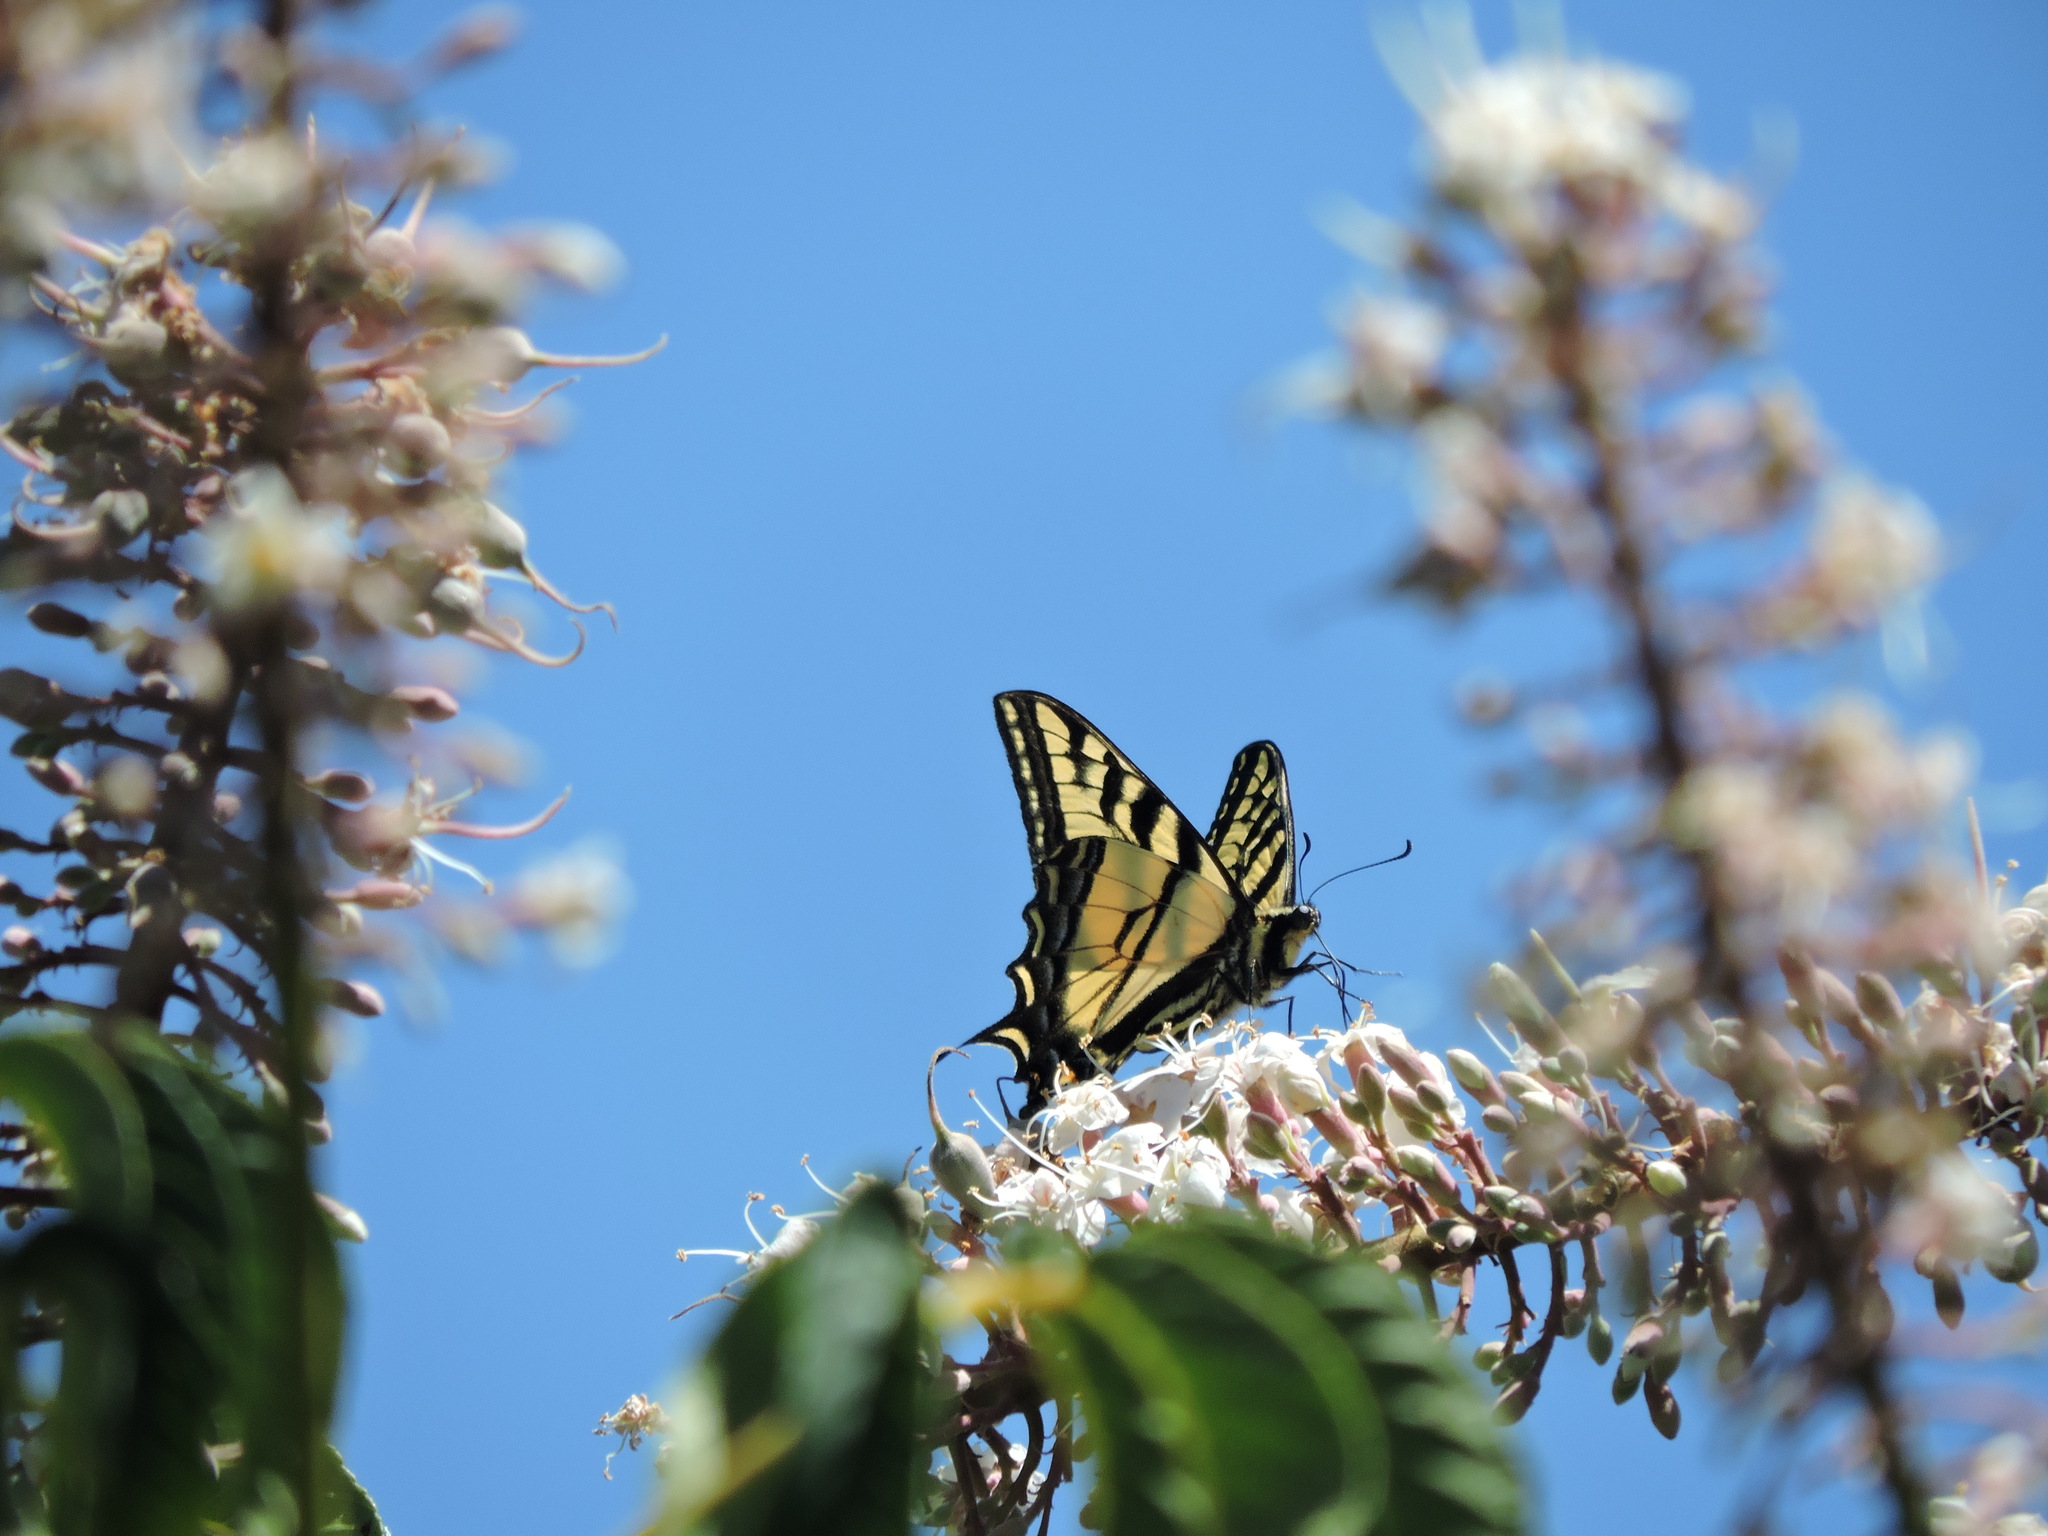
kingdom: Animalia
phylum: Arthropoda
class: Insecta
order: Lepidoptera
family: Papilionidae
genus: Papilio
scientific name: Papilio rutulus
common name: Western tiger swallowtail
